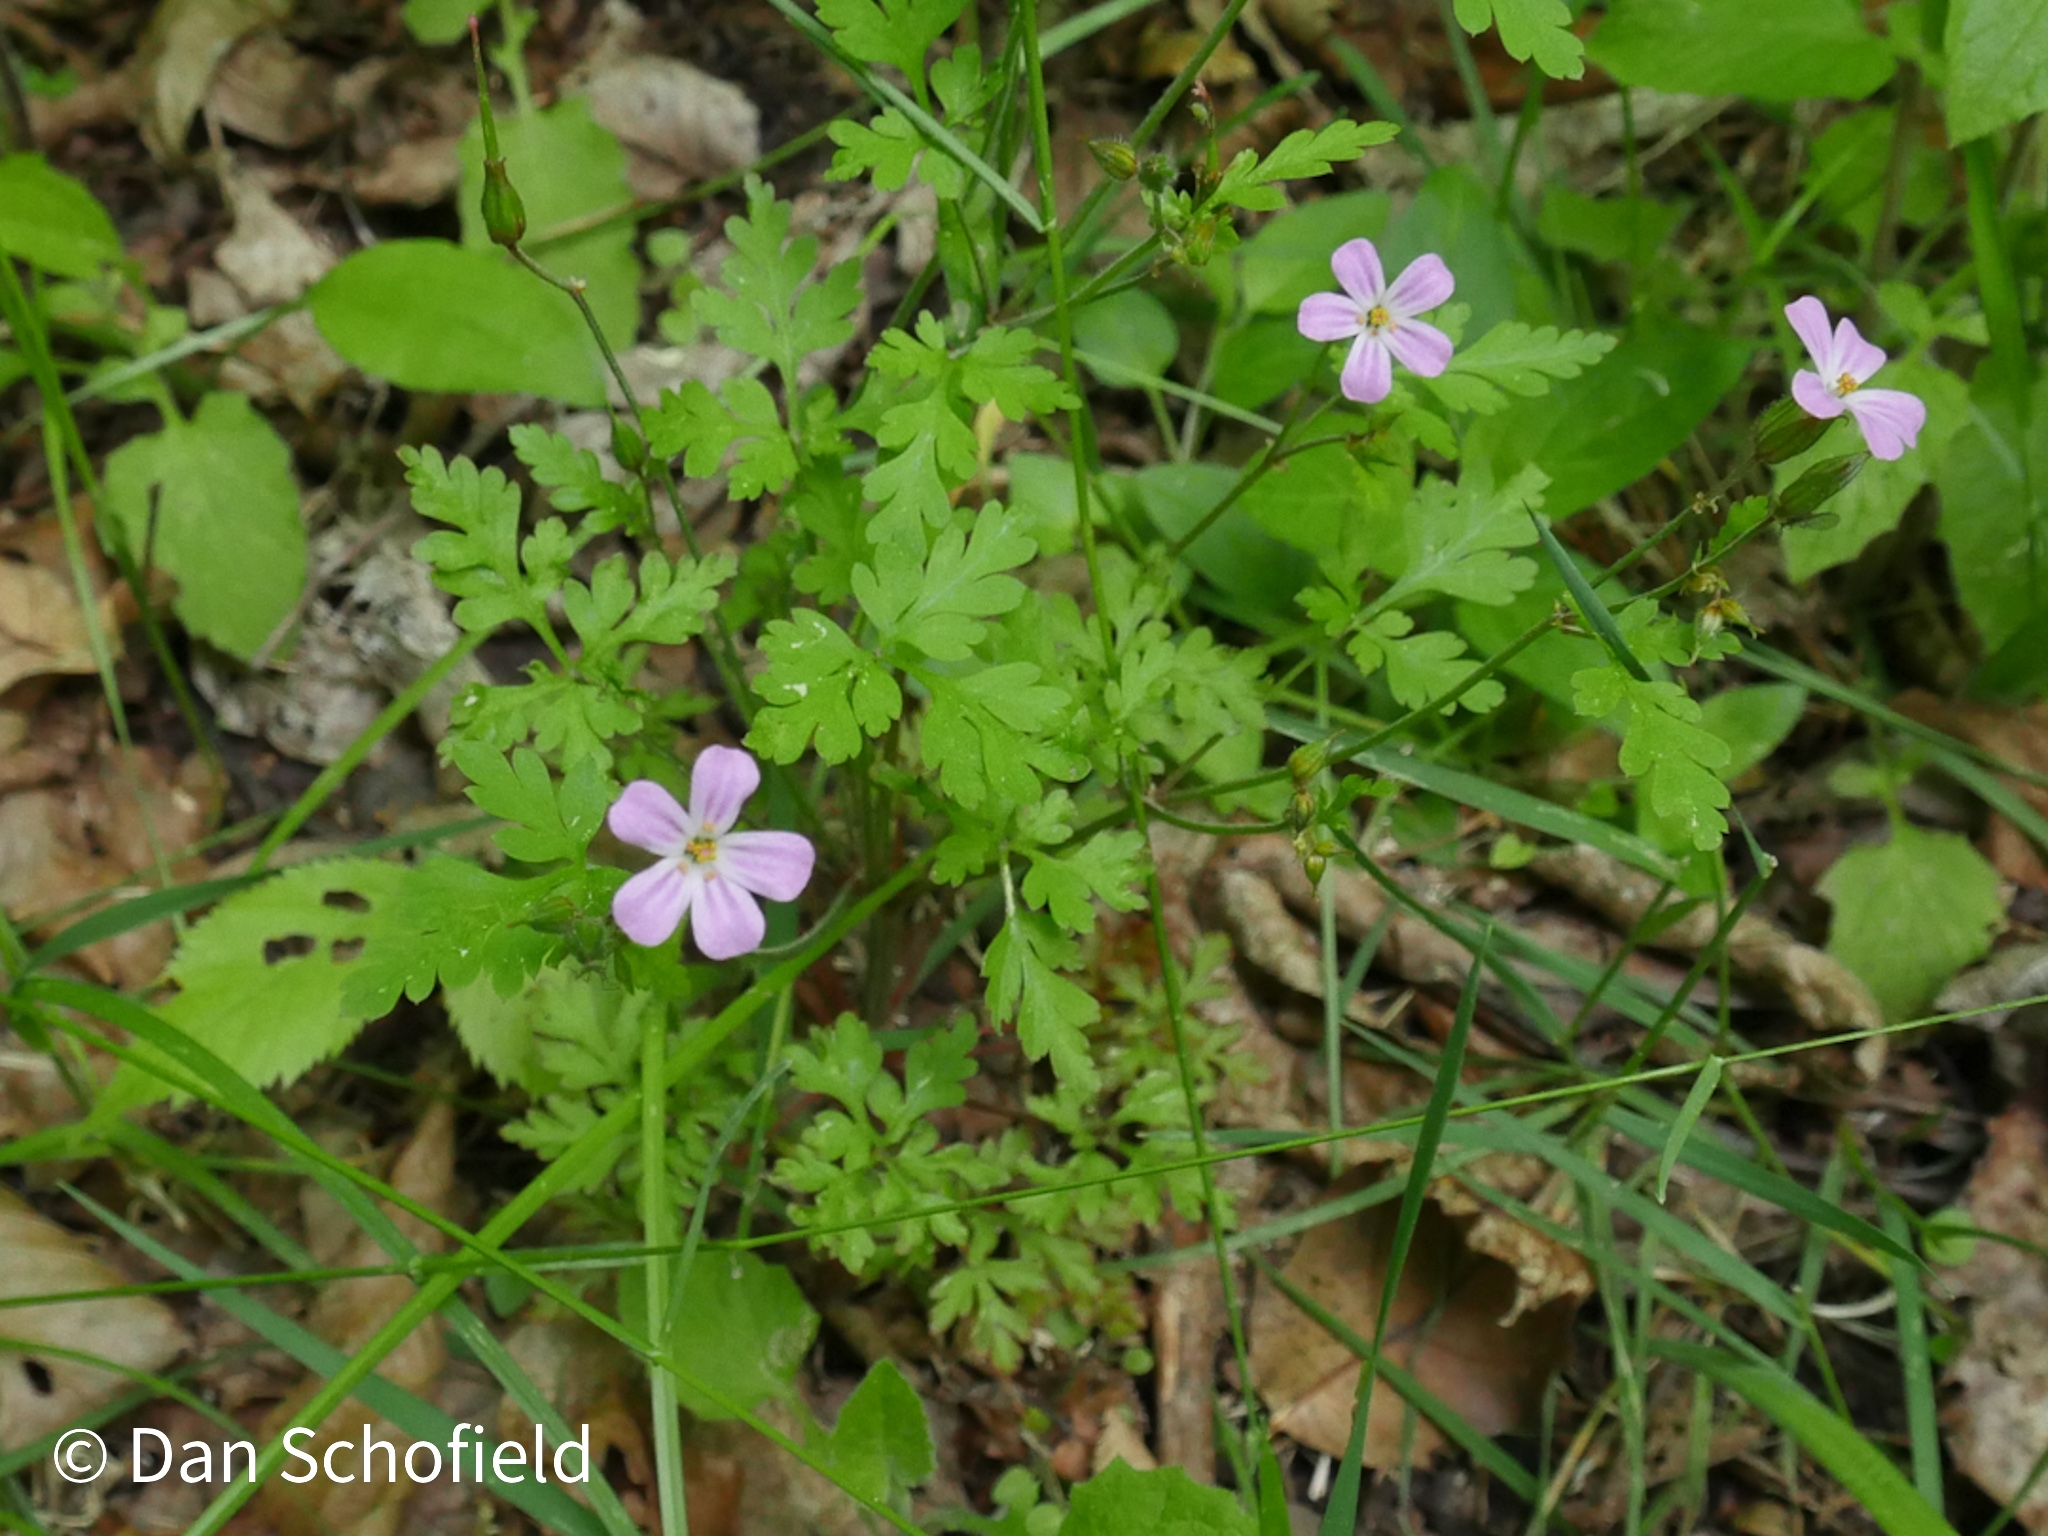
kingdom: Plantae
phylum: Tracheophyta
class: Magnoliopsida
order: Geraniales
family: Geraniaceae
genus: Geranium
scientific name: Geranium robertianum
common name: Herb-robert
